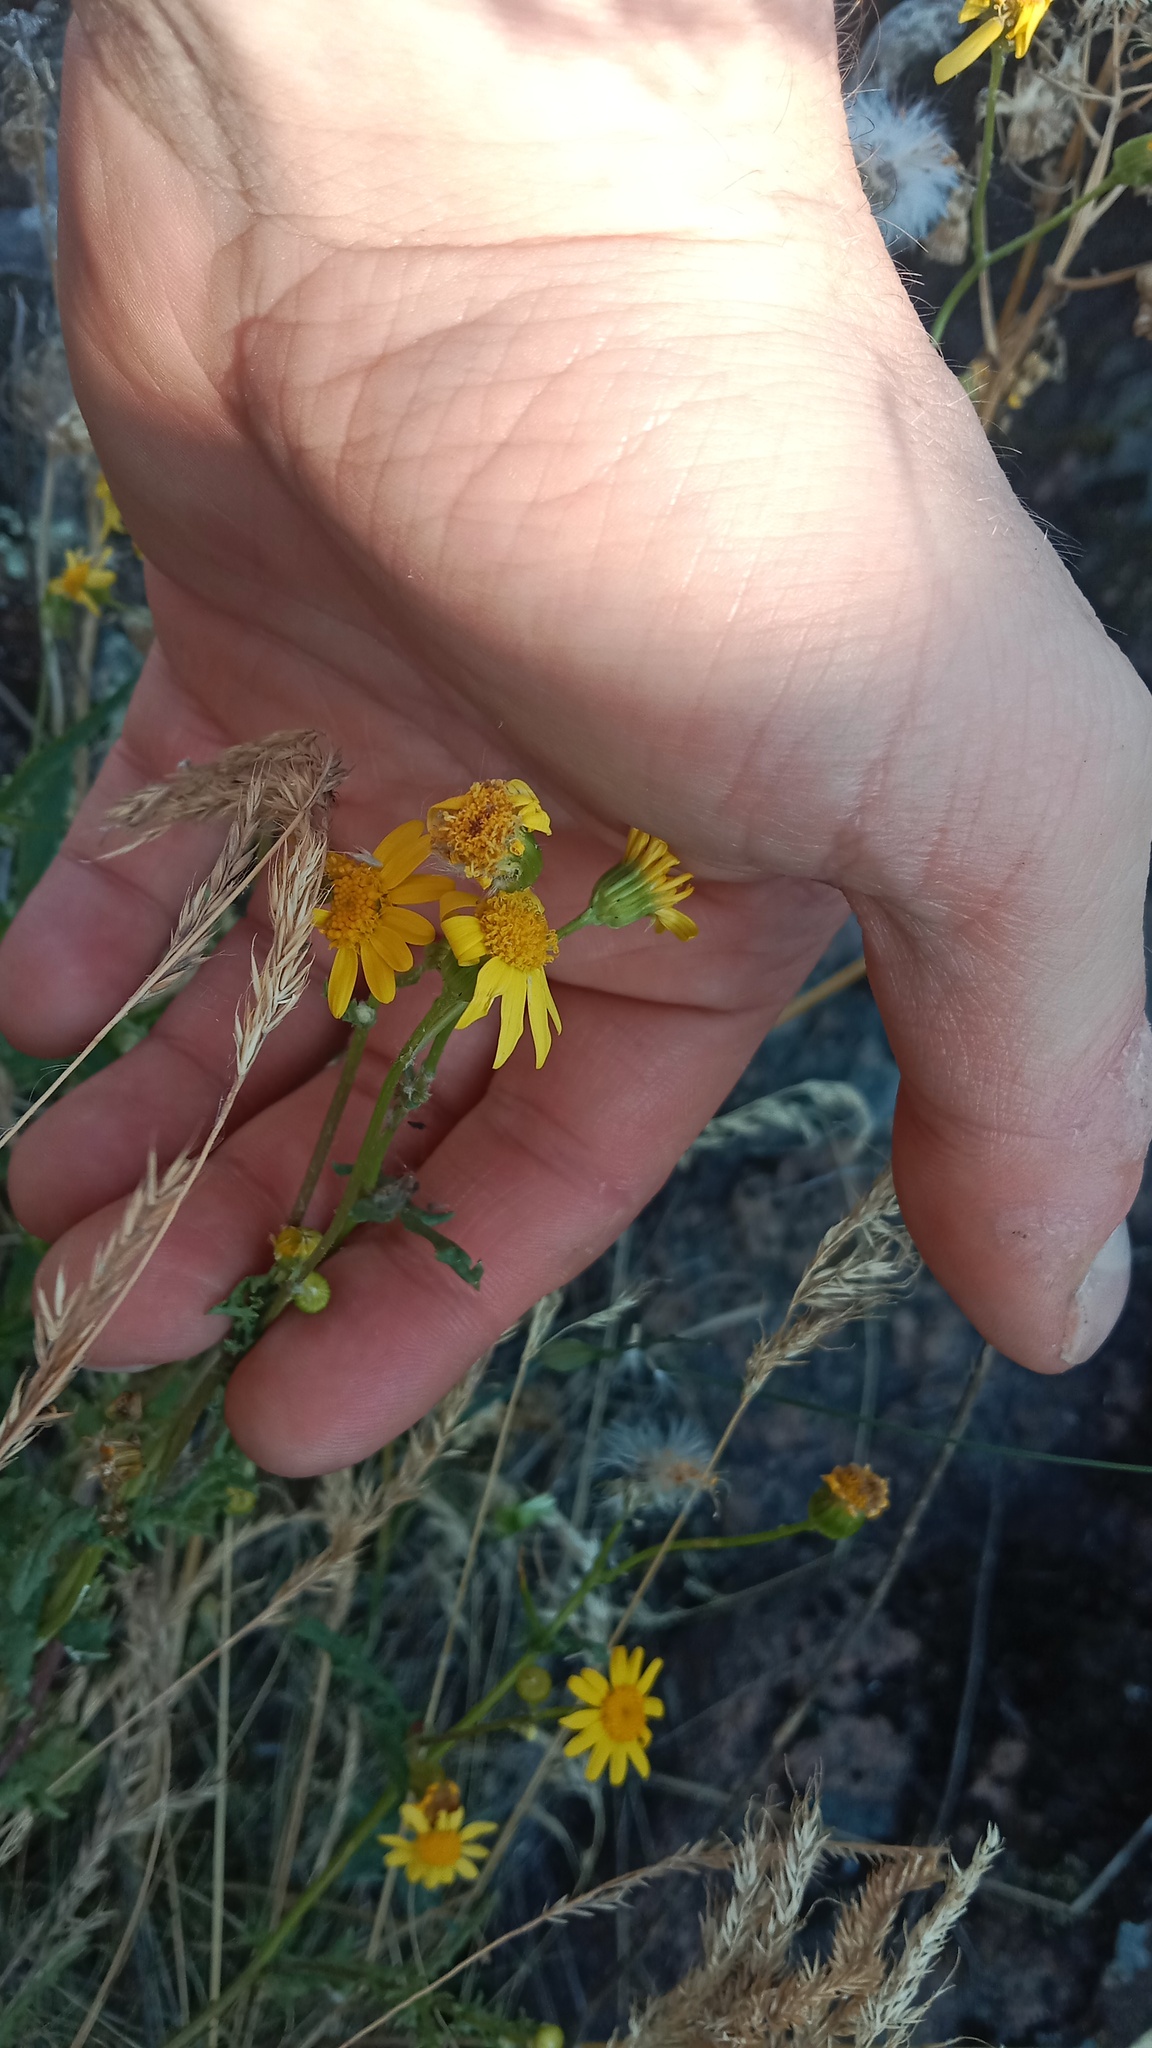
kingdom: Plantae
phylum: Tracheophyta
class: Magnoliopsida
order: Asterales
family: Asteraceae
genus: Senecio
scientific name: Senecio vernalis
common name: Eastern groundsel
